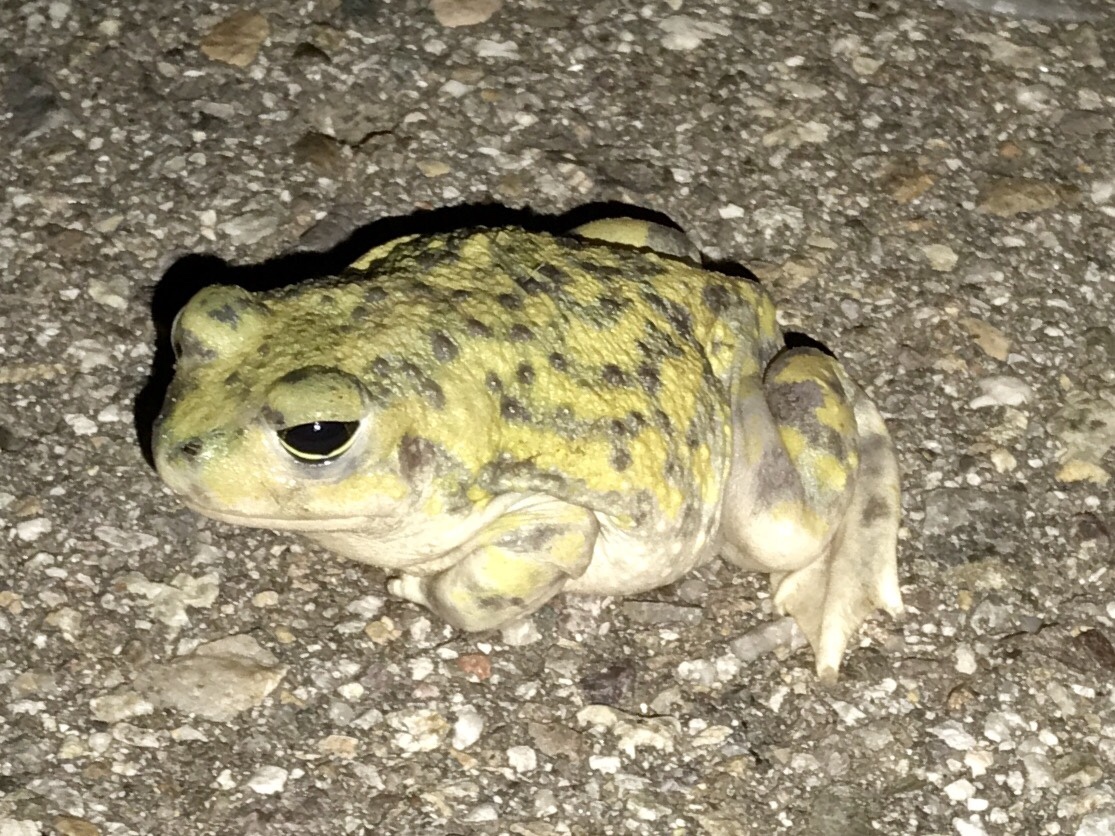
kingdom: Animalia
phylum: Chordata
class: Amphibia
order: Anura
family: Scaphiopodidae
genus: Scaphiopus
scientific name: Scaphiopus couchii
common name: Couch's spadefoot toad
